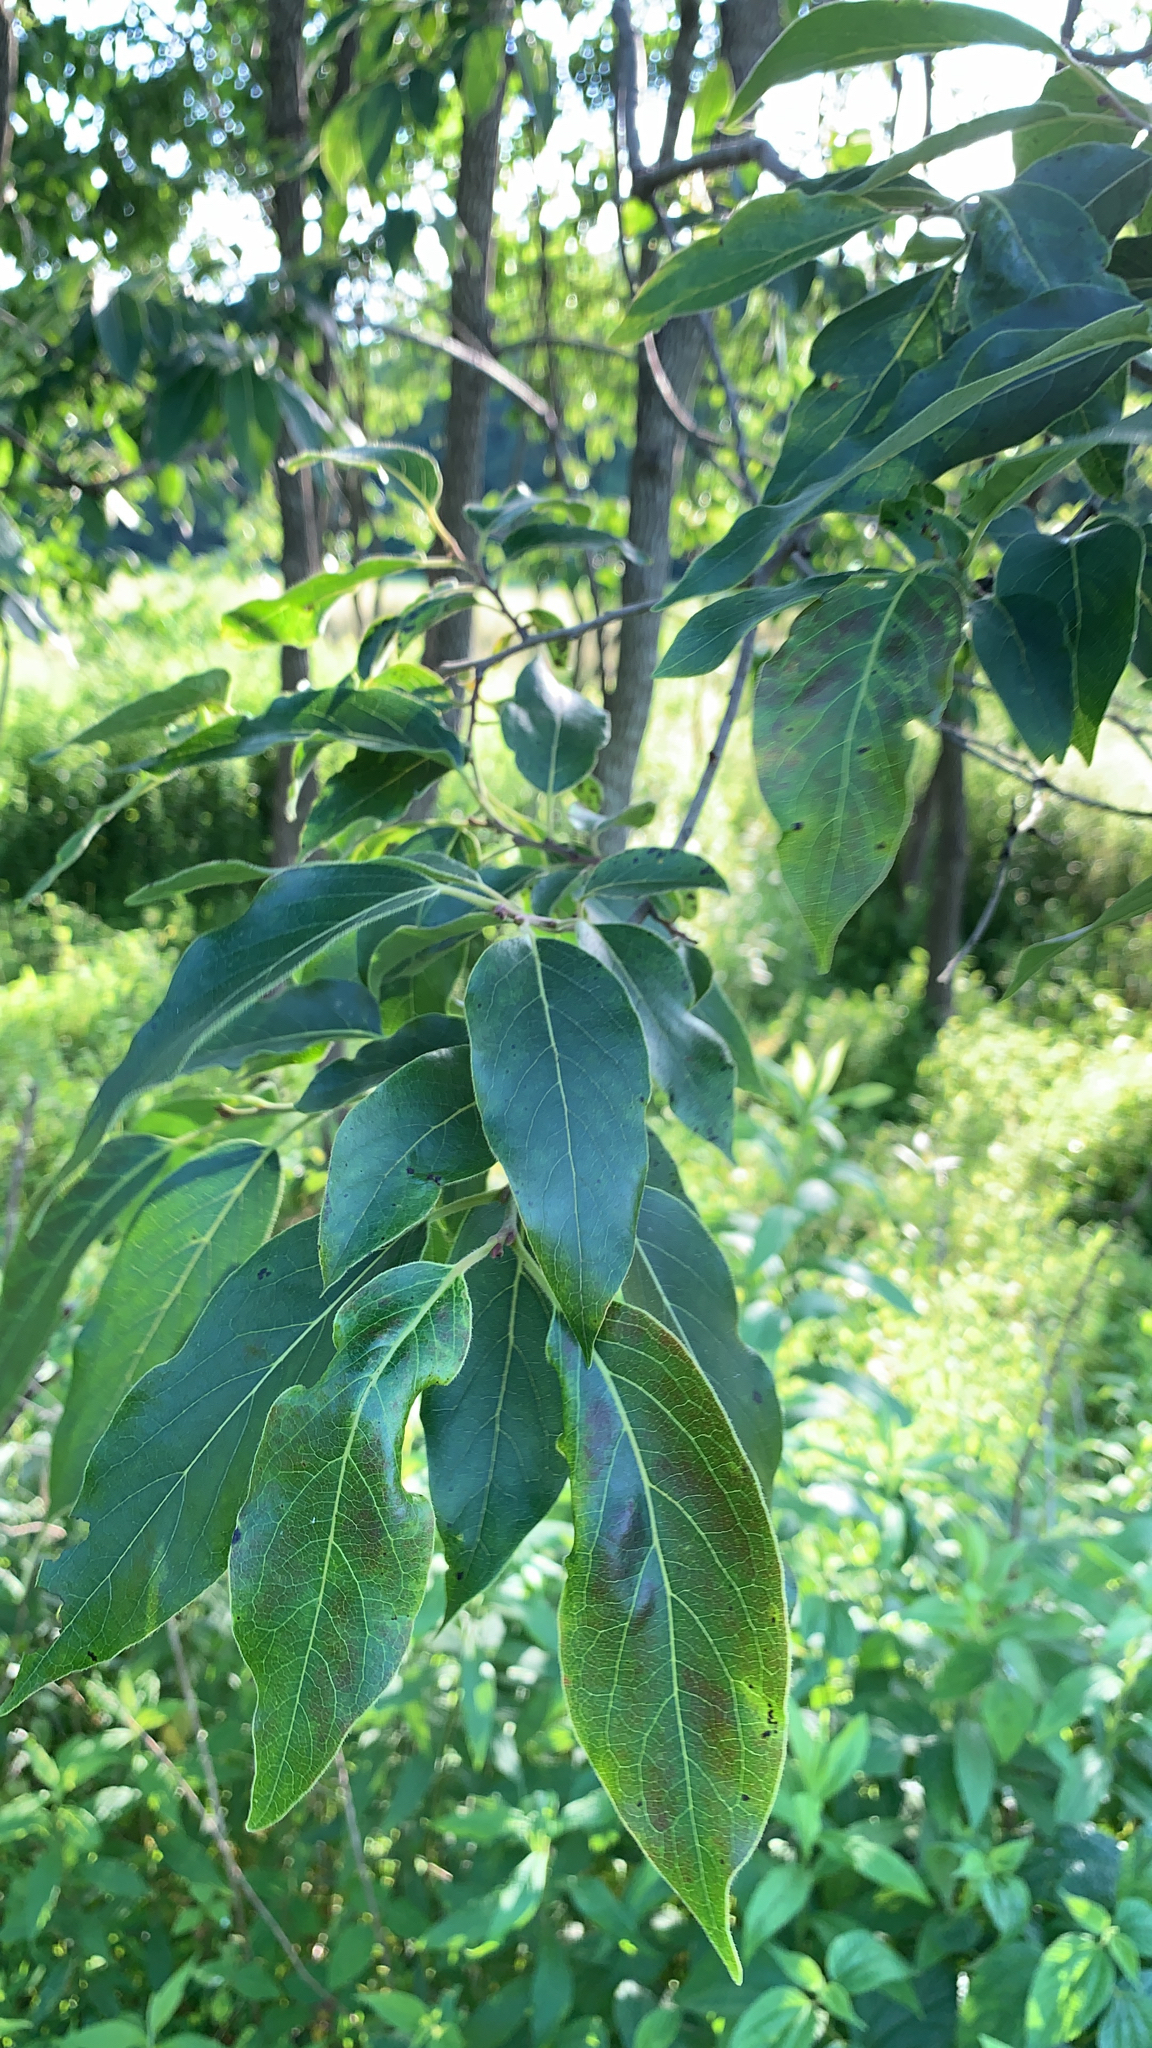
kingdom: Plantae
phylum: Tracheophyta
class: Magnoliopsida
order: Ericales
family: Ebenaceae
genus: Diospyros
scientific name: Diospyros virginiana
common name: Persimmon
